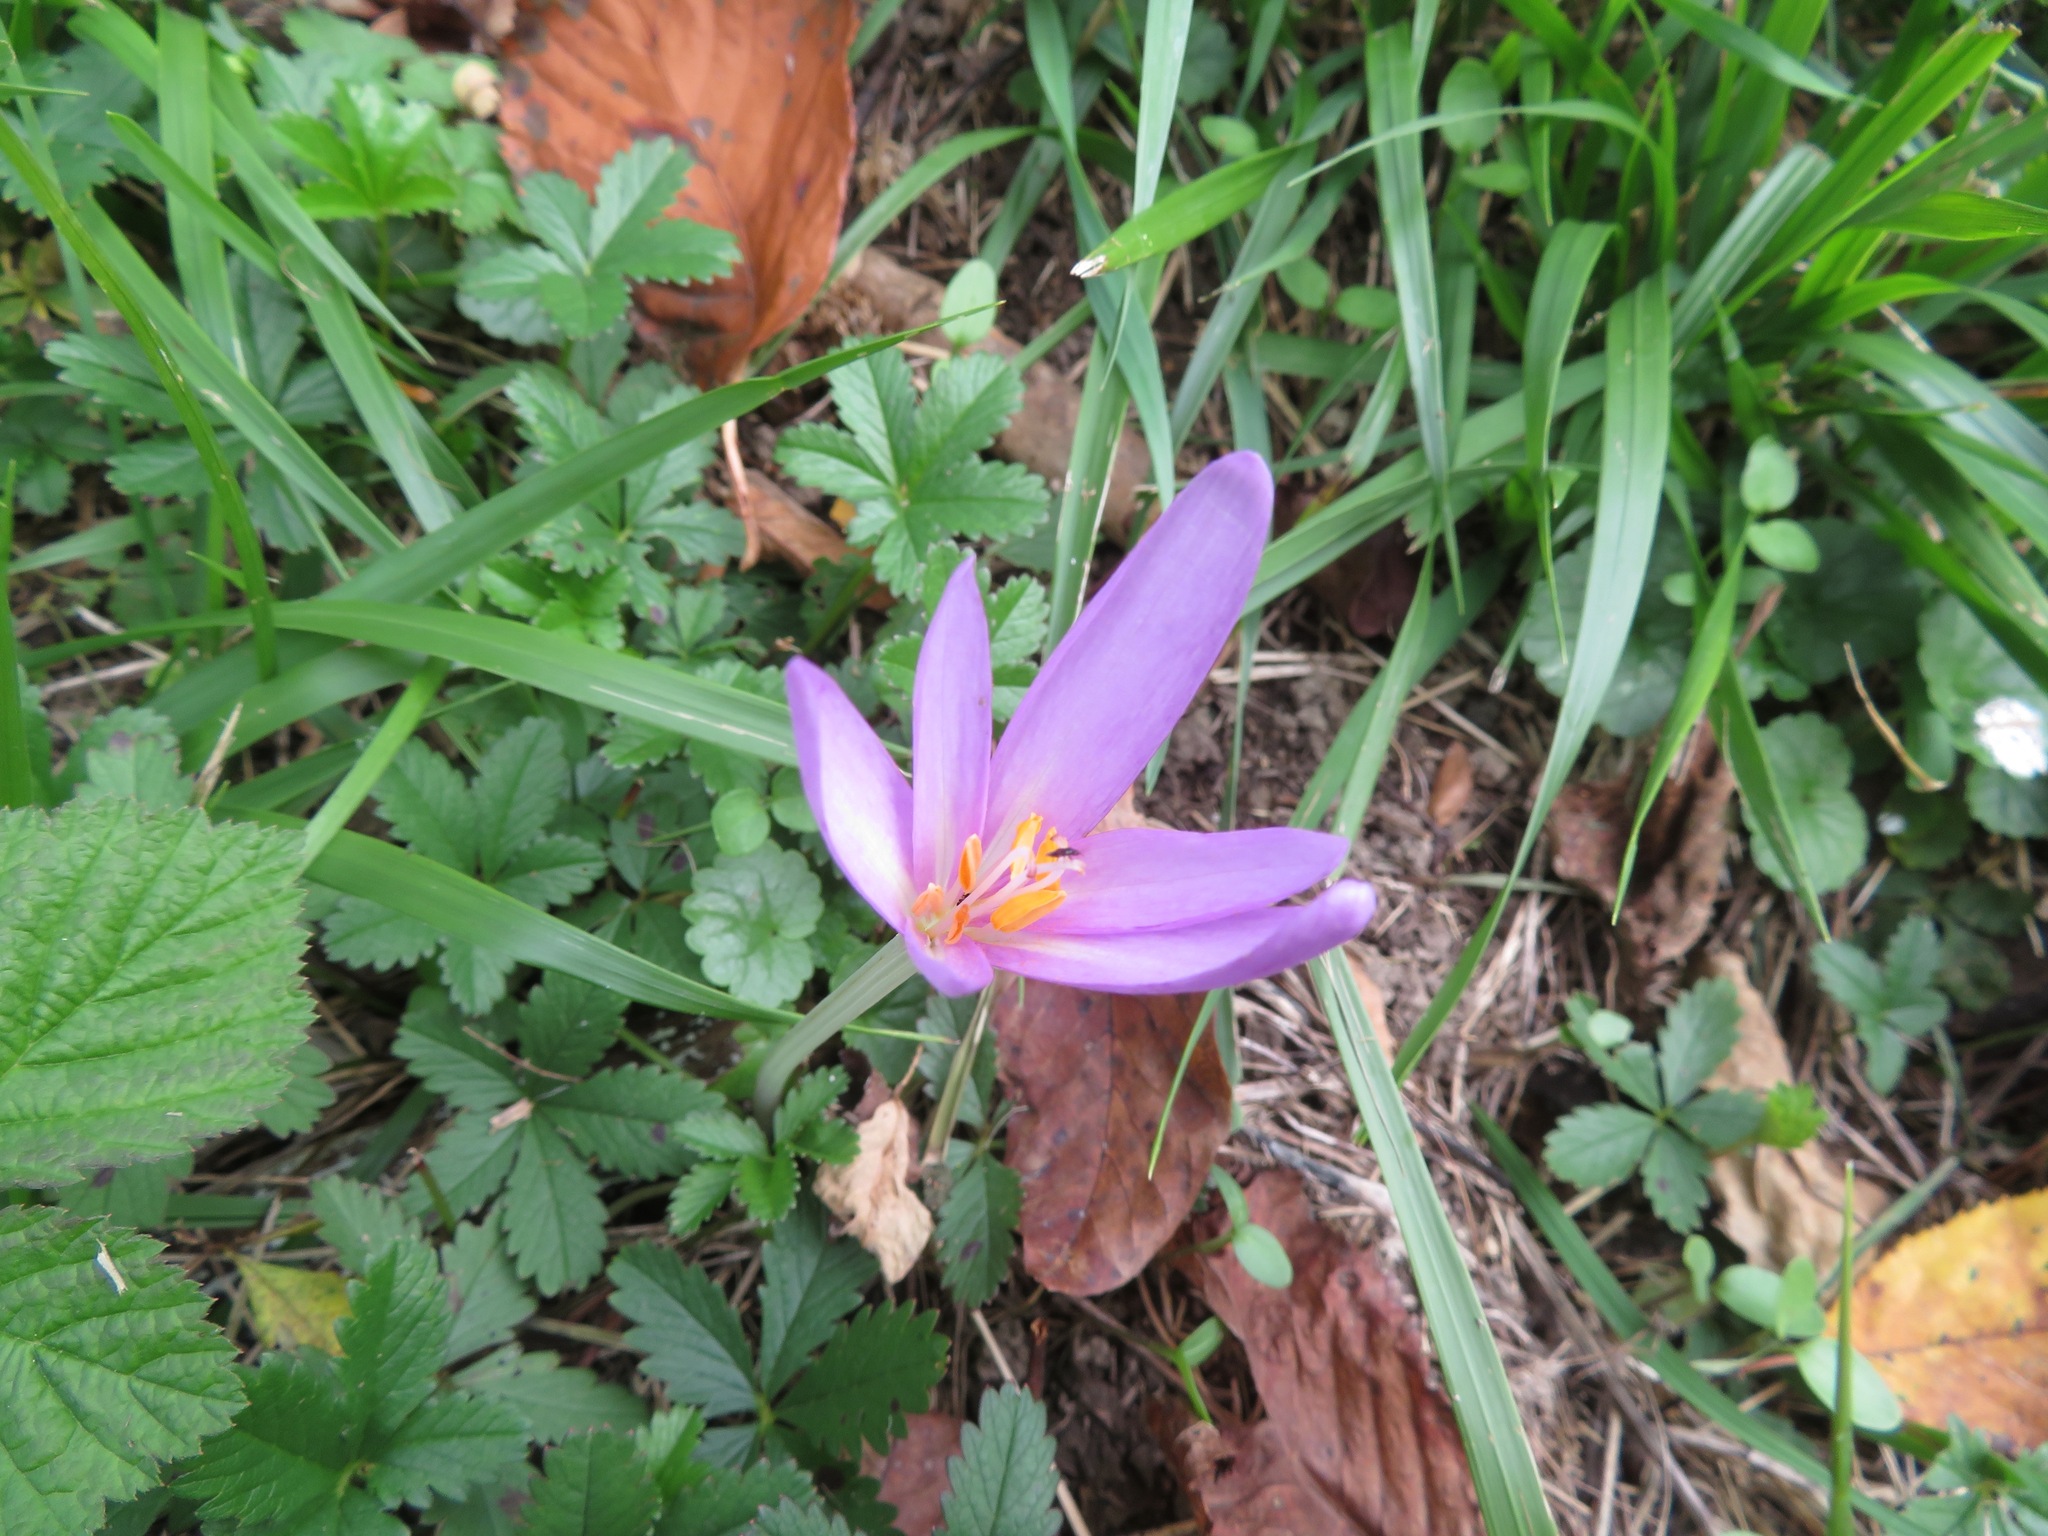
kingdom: Plantae
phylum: Tracheophyta
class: Liliopsida
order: Liliales
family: Colchicaceae
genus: Colchicum
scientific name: Colchicum autumnale
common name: Autumn crocus
